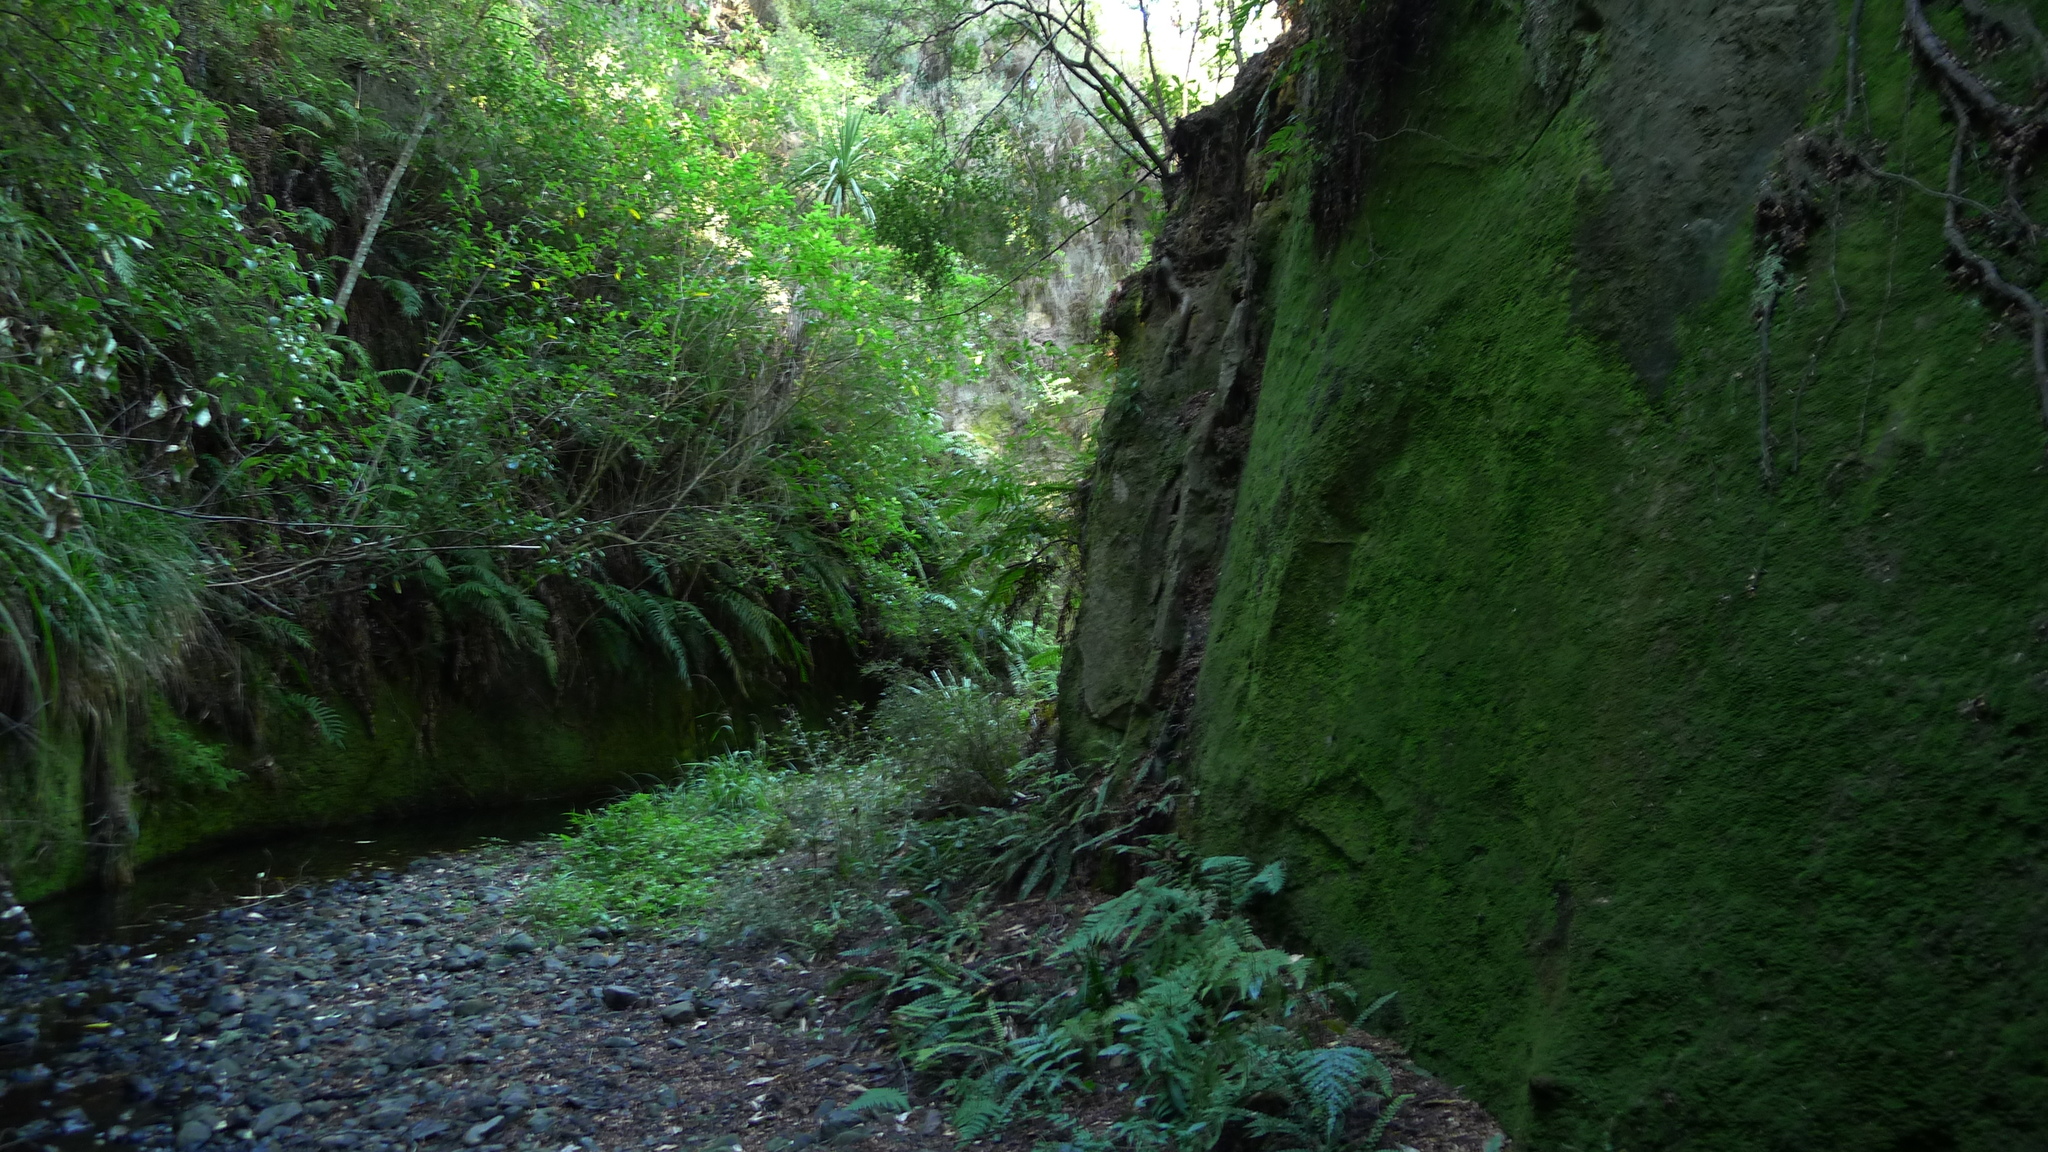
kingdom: Plantae
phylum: Tracheophyta
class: Polypodiopsida
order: Hymenophyllales
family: Hymenophyllaceae
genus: Hymenophyllum
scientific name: Hymenophyllum pulcherrimum
